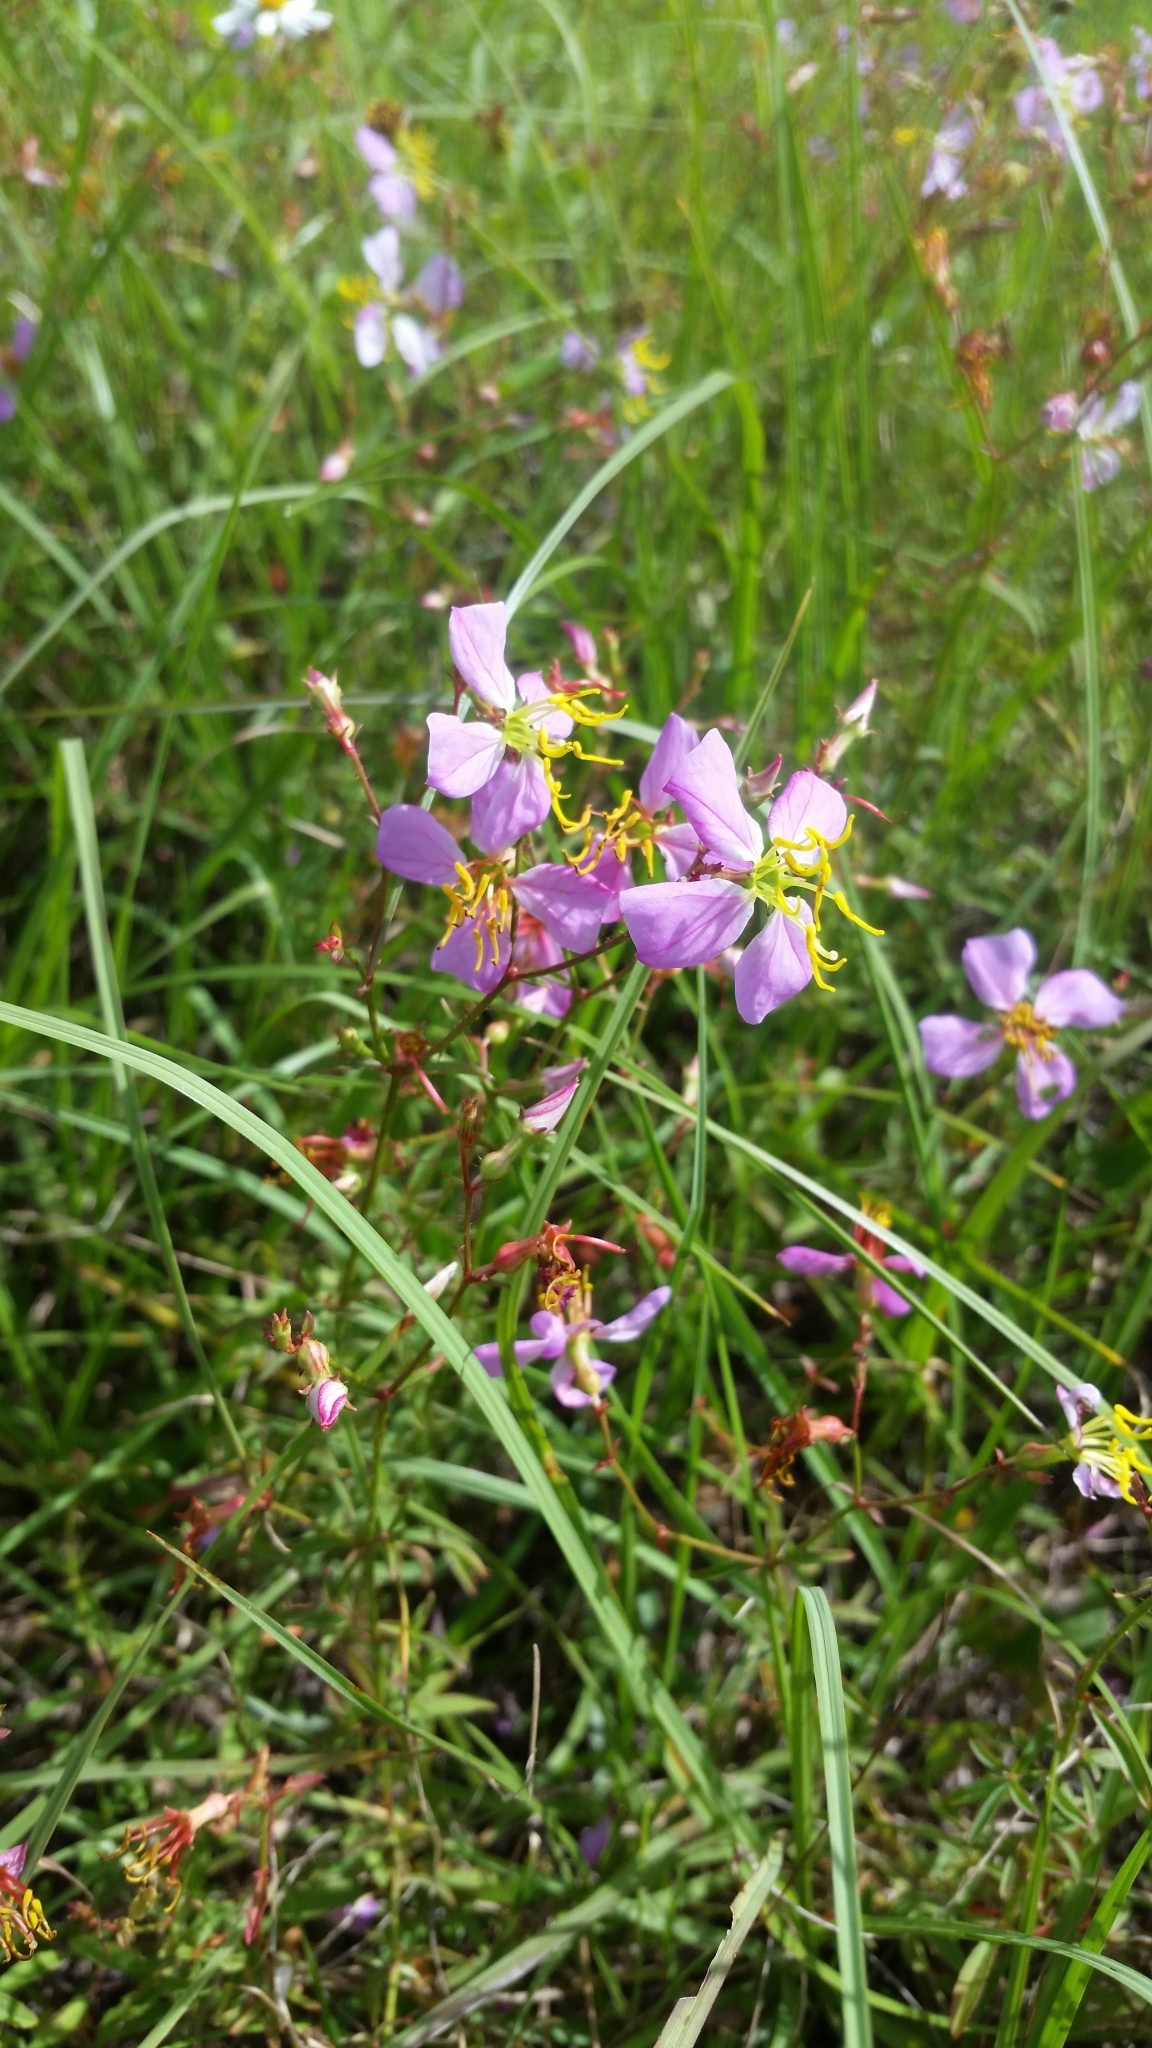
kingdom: Plantae
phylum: Tracheophyta
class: Magnoliopsida
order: Myrtales
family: Melastomataceae
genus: Rhexia
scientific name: Rhexia mariana
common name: Dull meadow-pitcher
